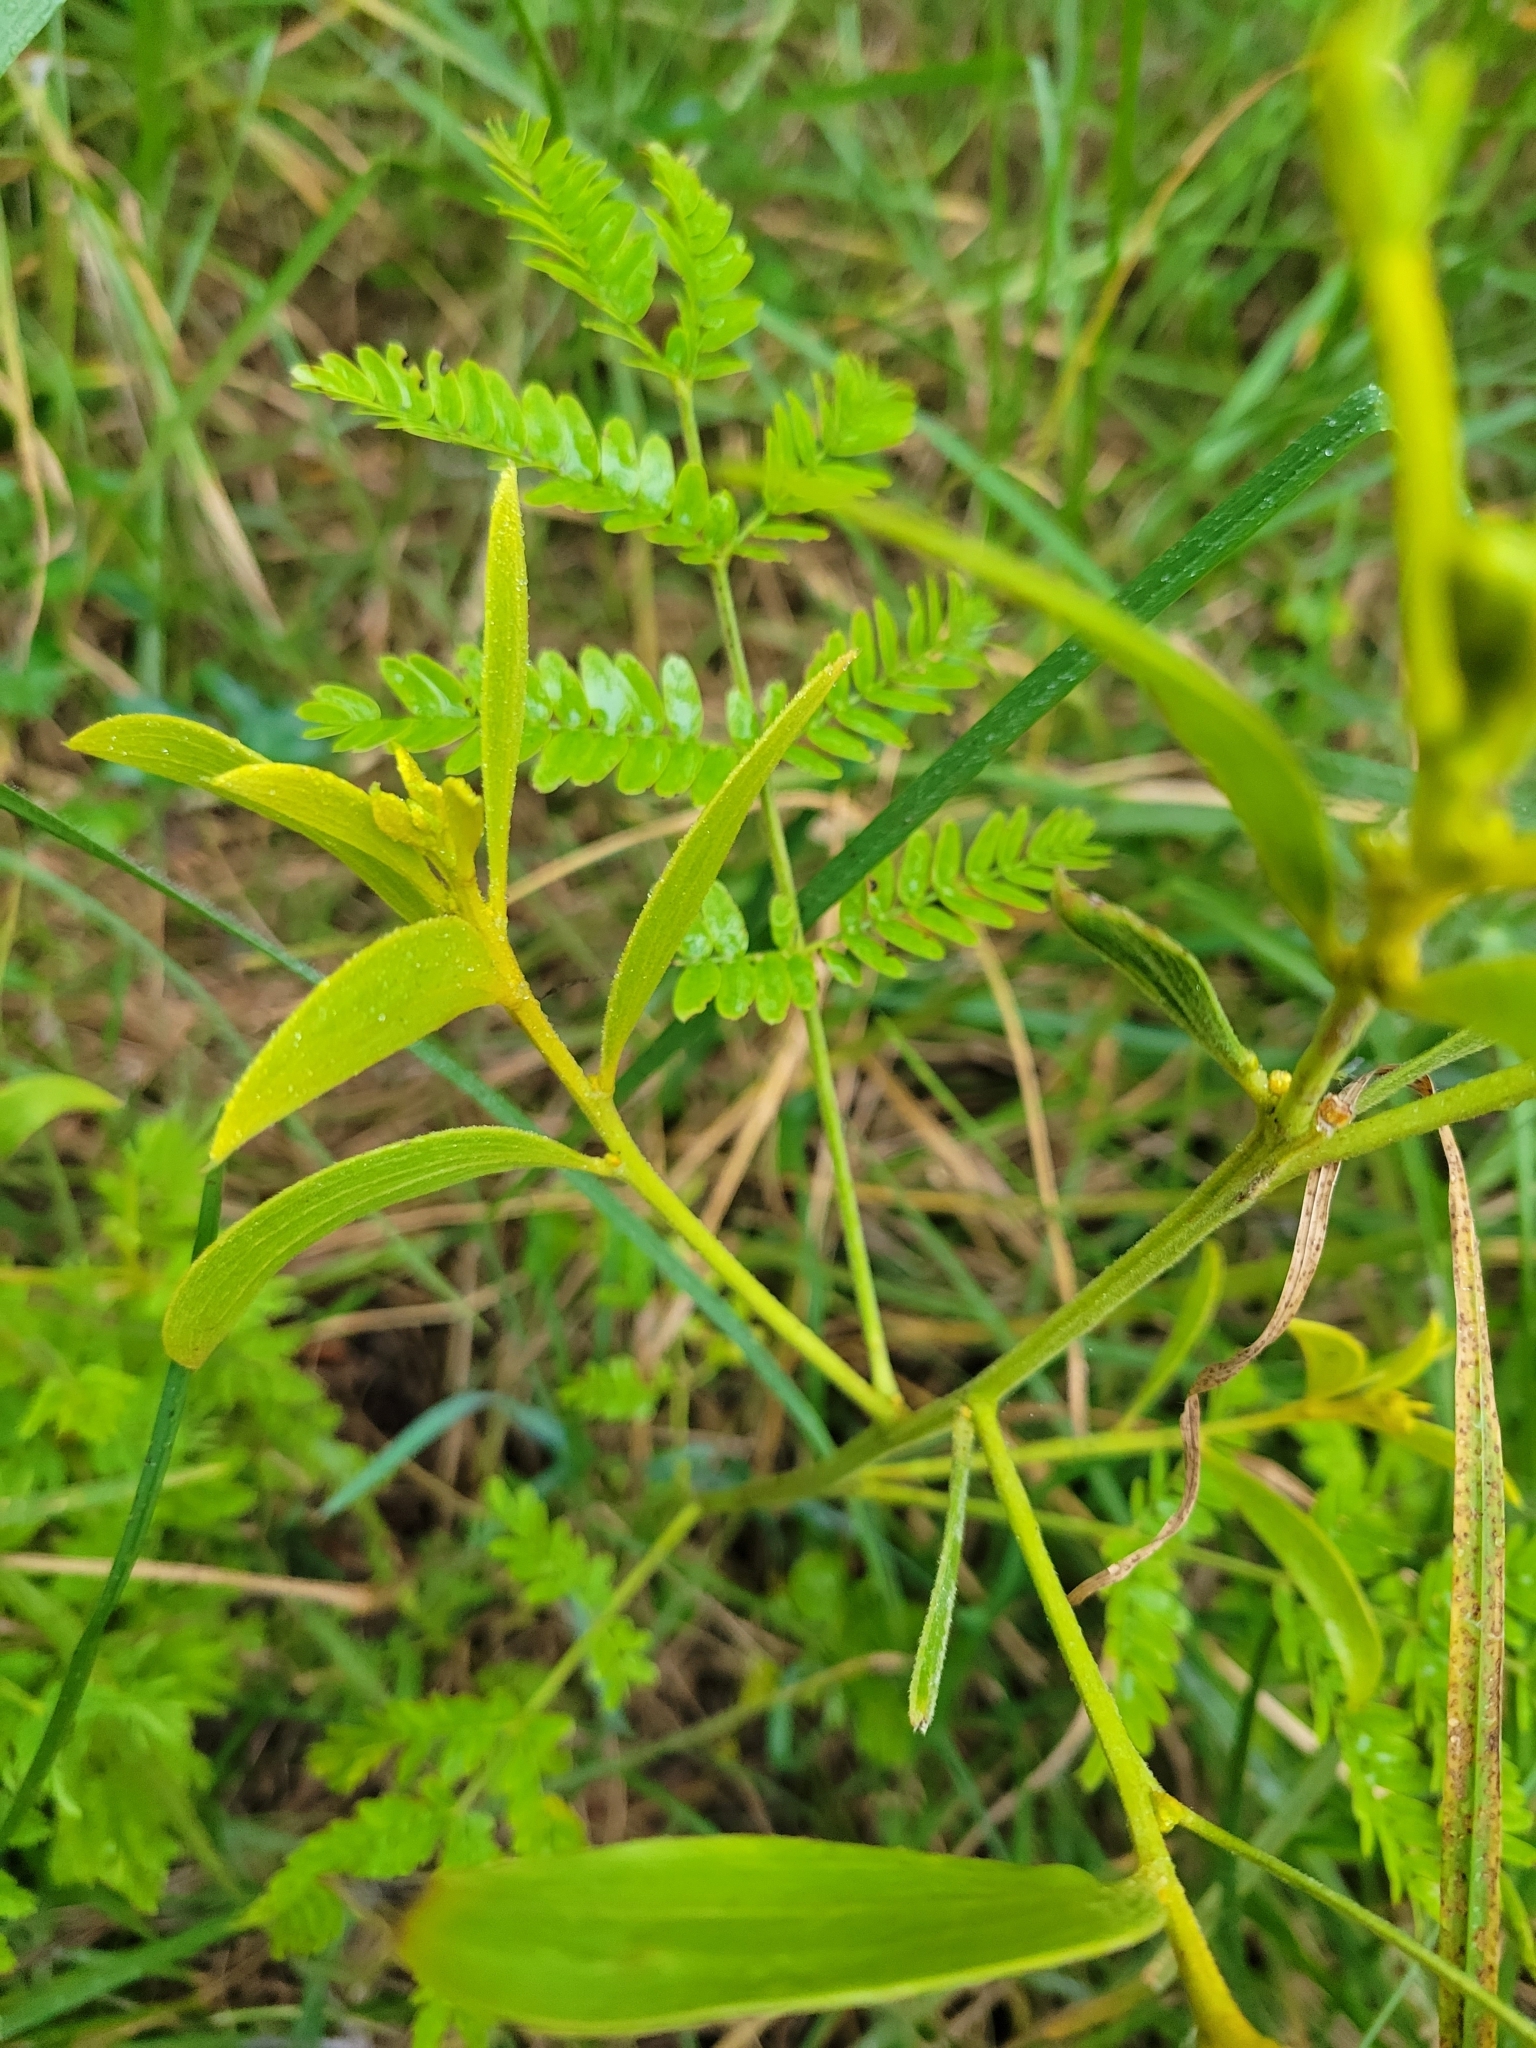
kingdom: Plantae
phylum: Tracheophyta
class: Magnoliopsida
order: Fabales
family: Fabaceae
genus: Acacia
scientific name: Acacia koa
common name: Gray koa
